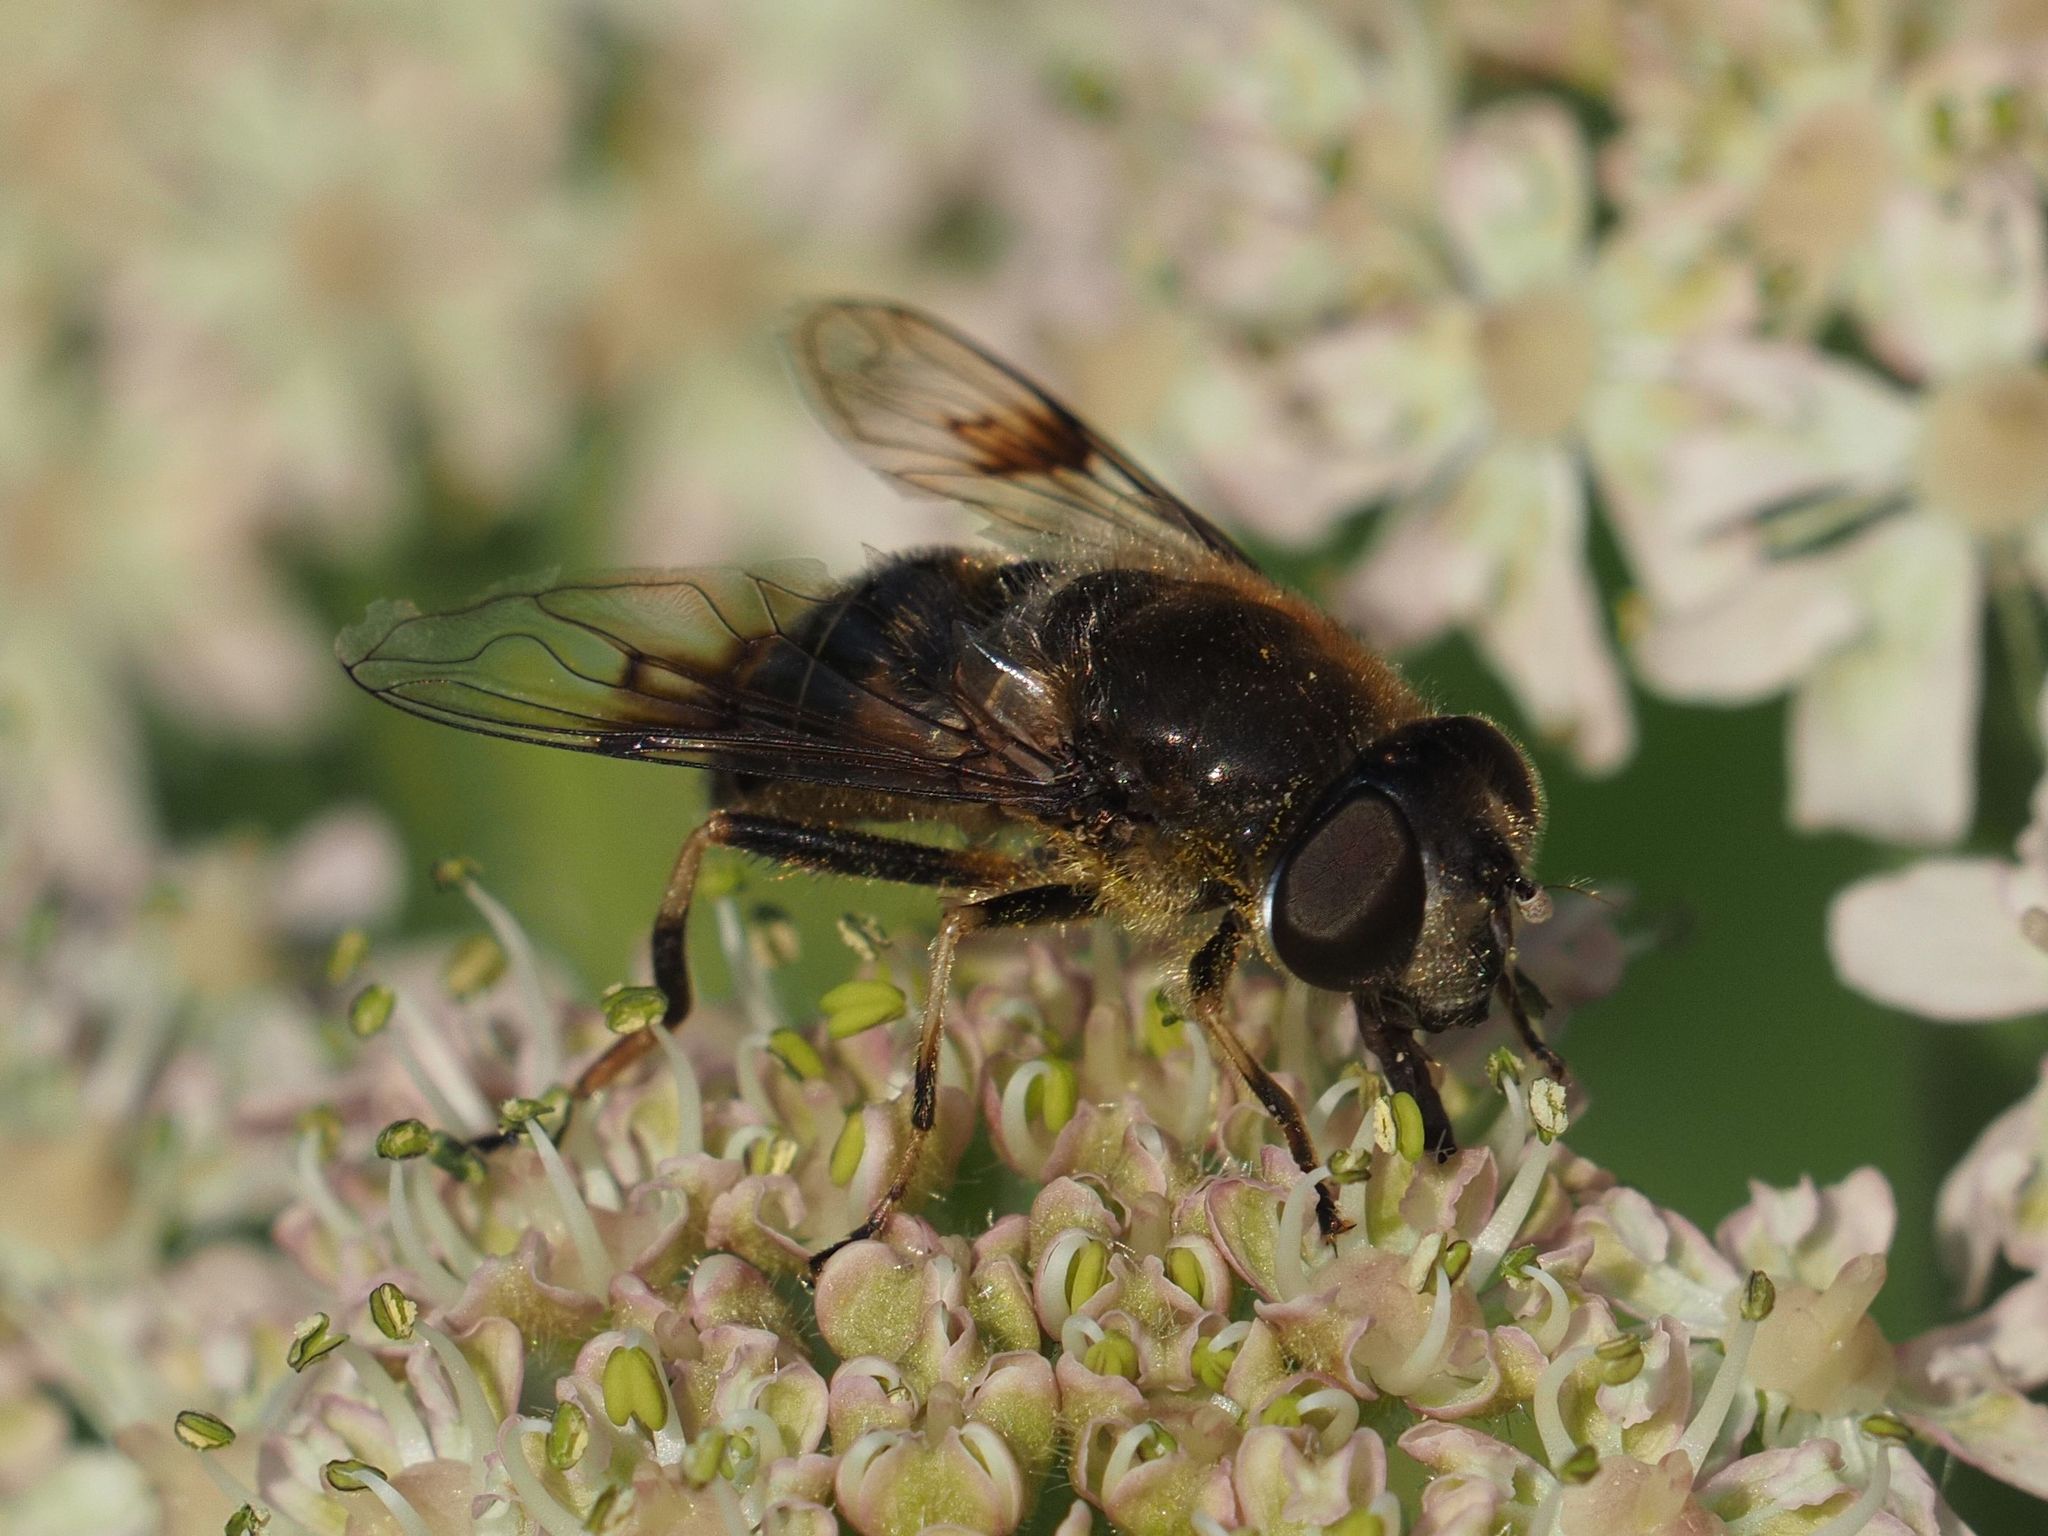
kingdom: Animalia
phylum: Arthropoda
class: Insecta
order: Diptera
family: Syrphidae
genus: Eristalis
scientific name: Eristalis rupium
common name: Hover fly
